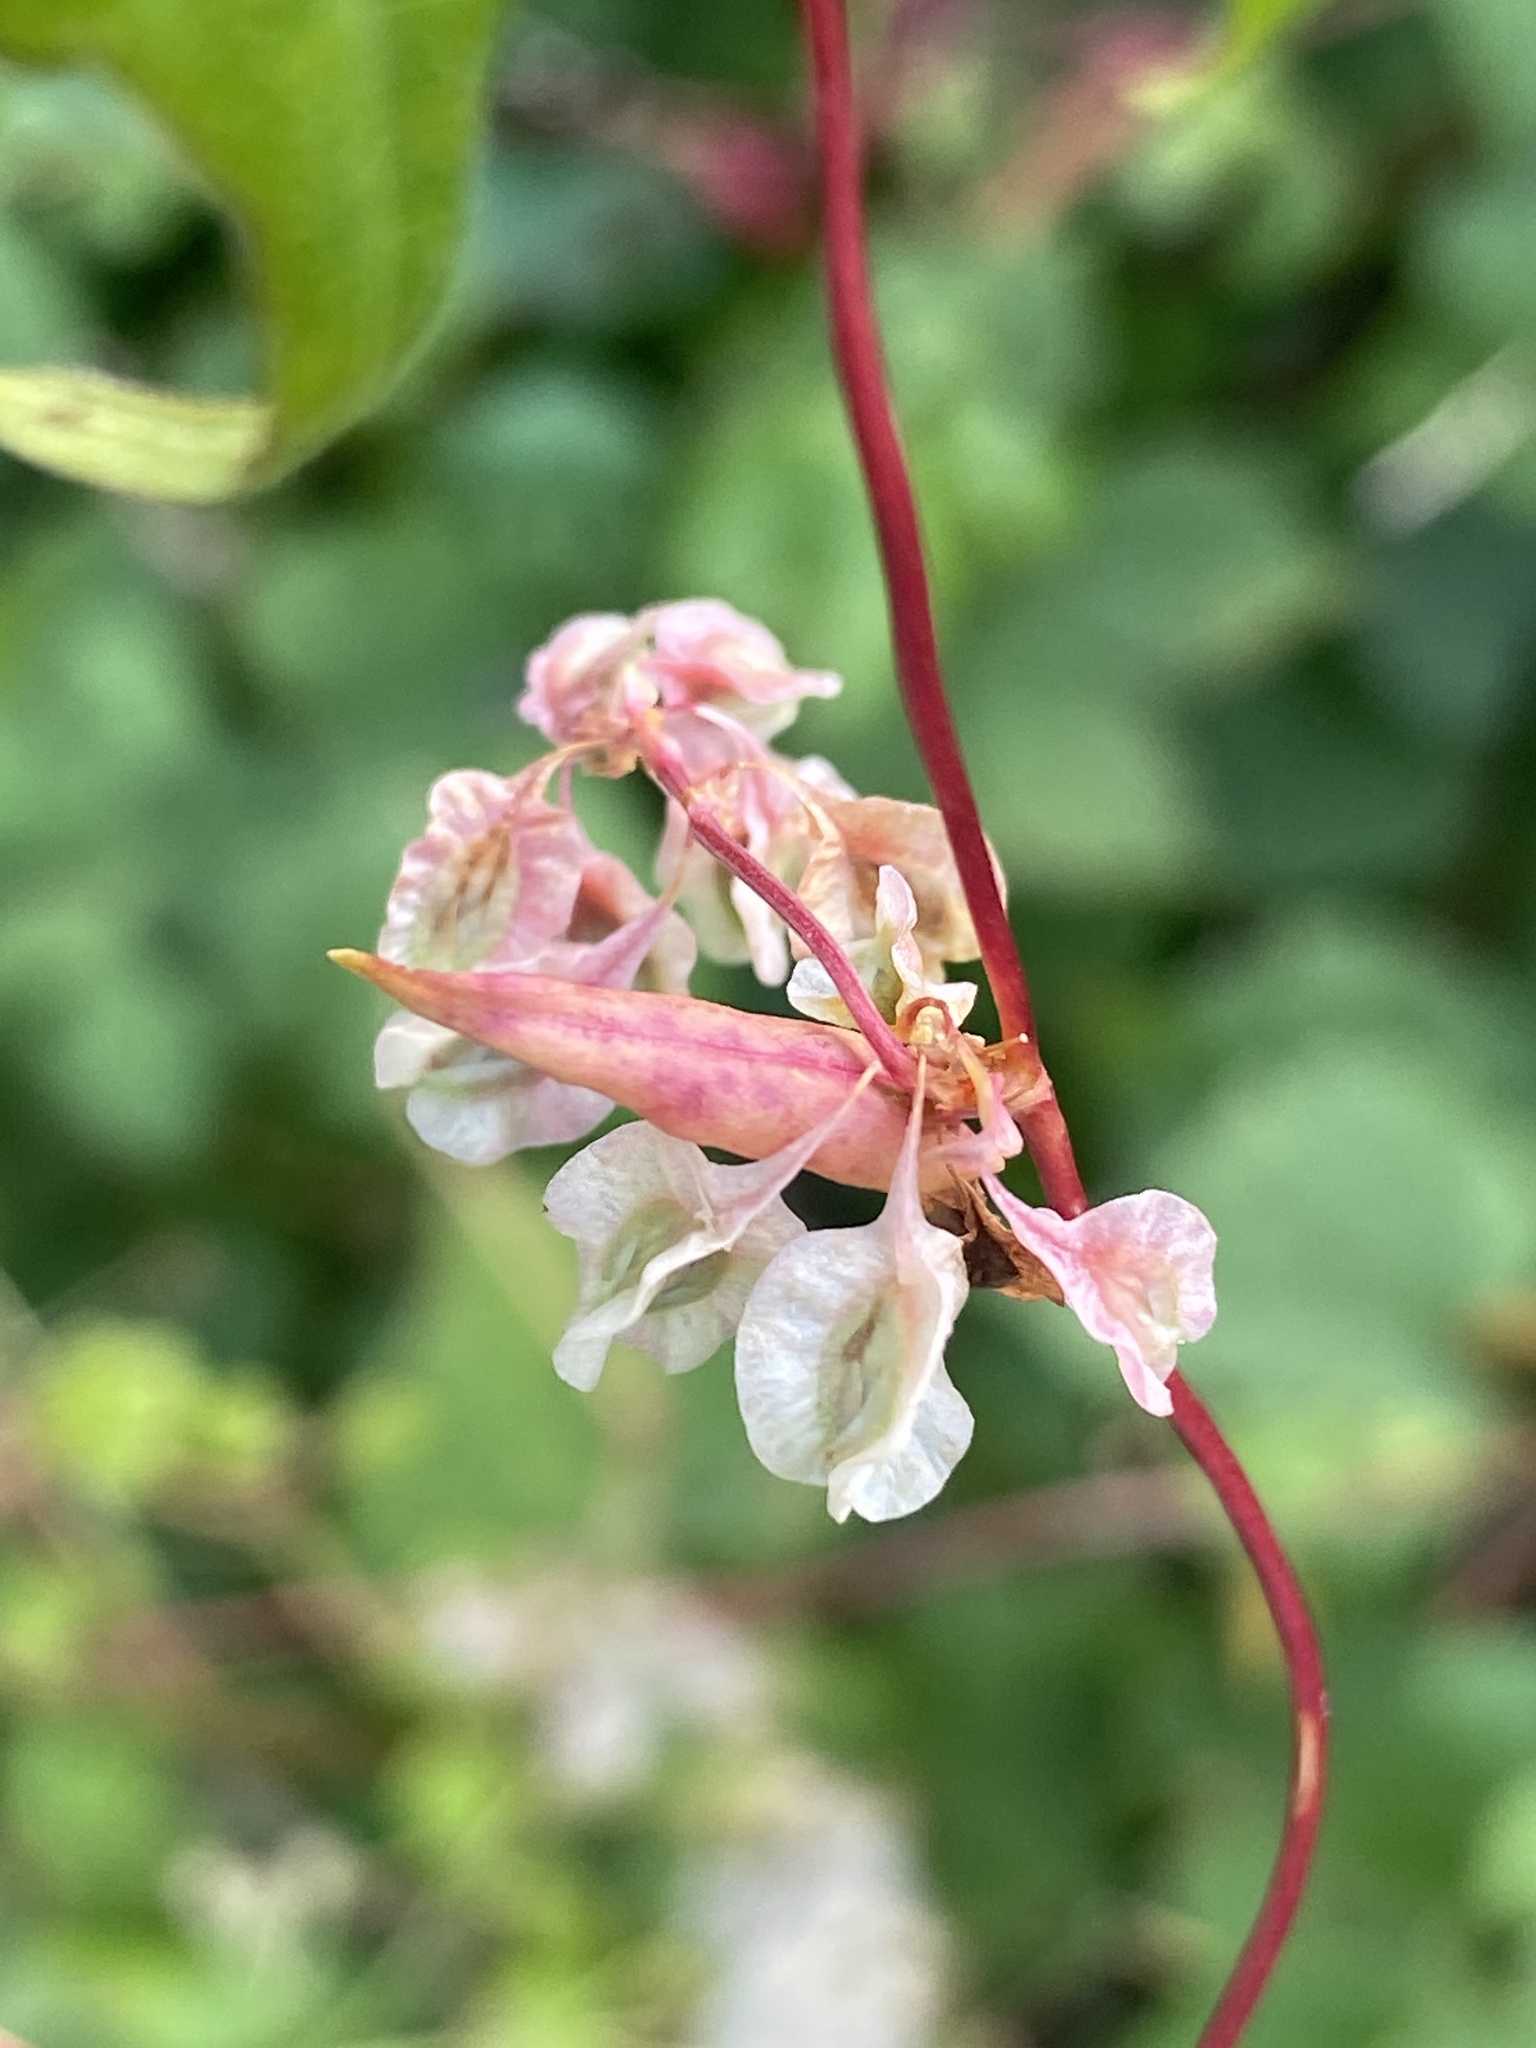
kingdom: Plantae
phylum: Tracheophyta
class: Magnoliopsida
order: Caryophyllales
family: Polygonaceae
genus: Fallopia
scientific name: Fallopia scandens
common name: Climbing false buckwheat
